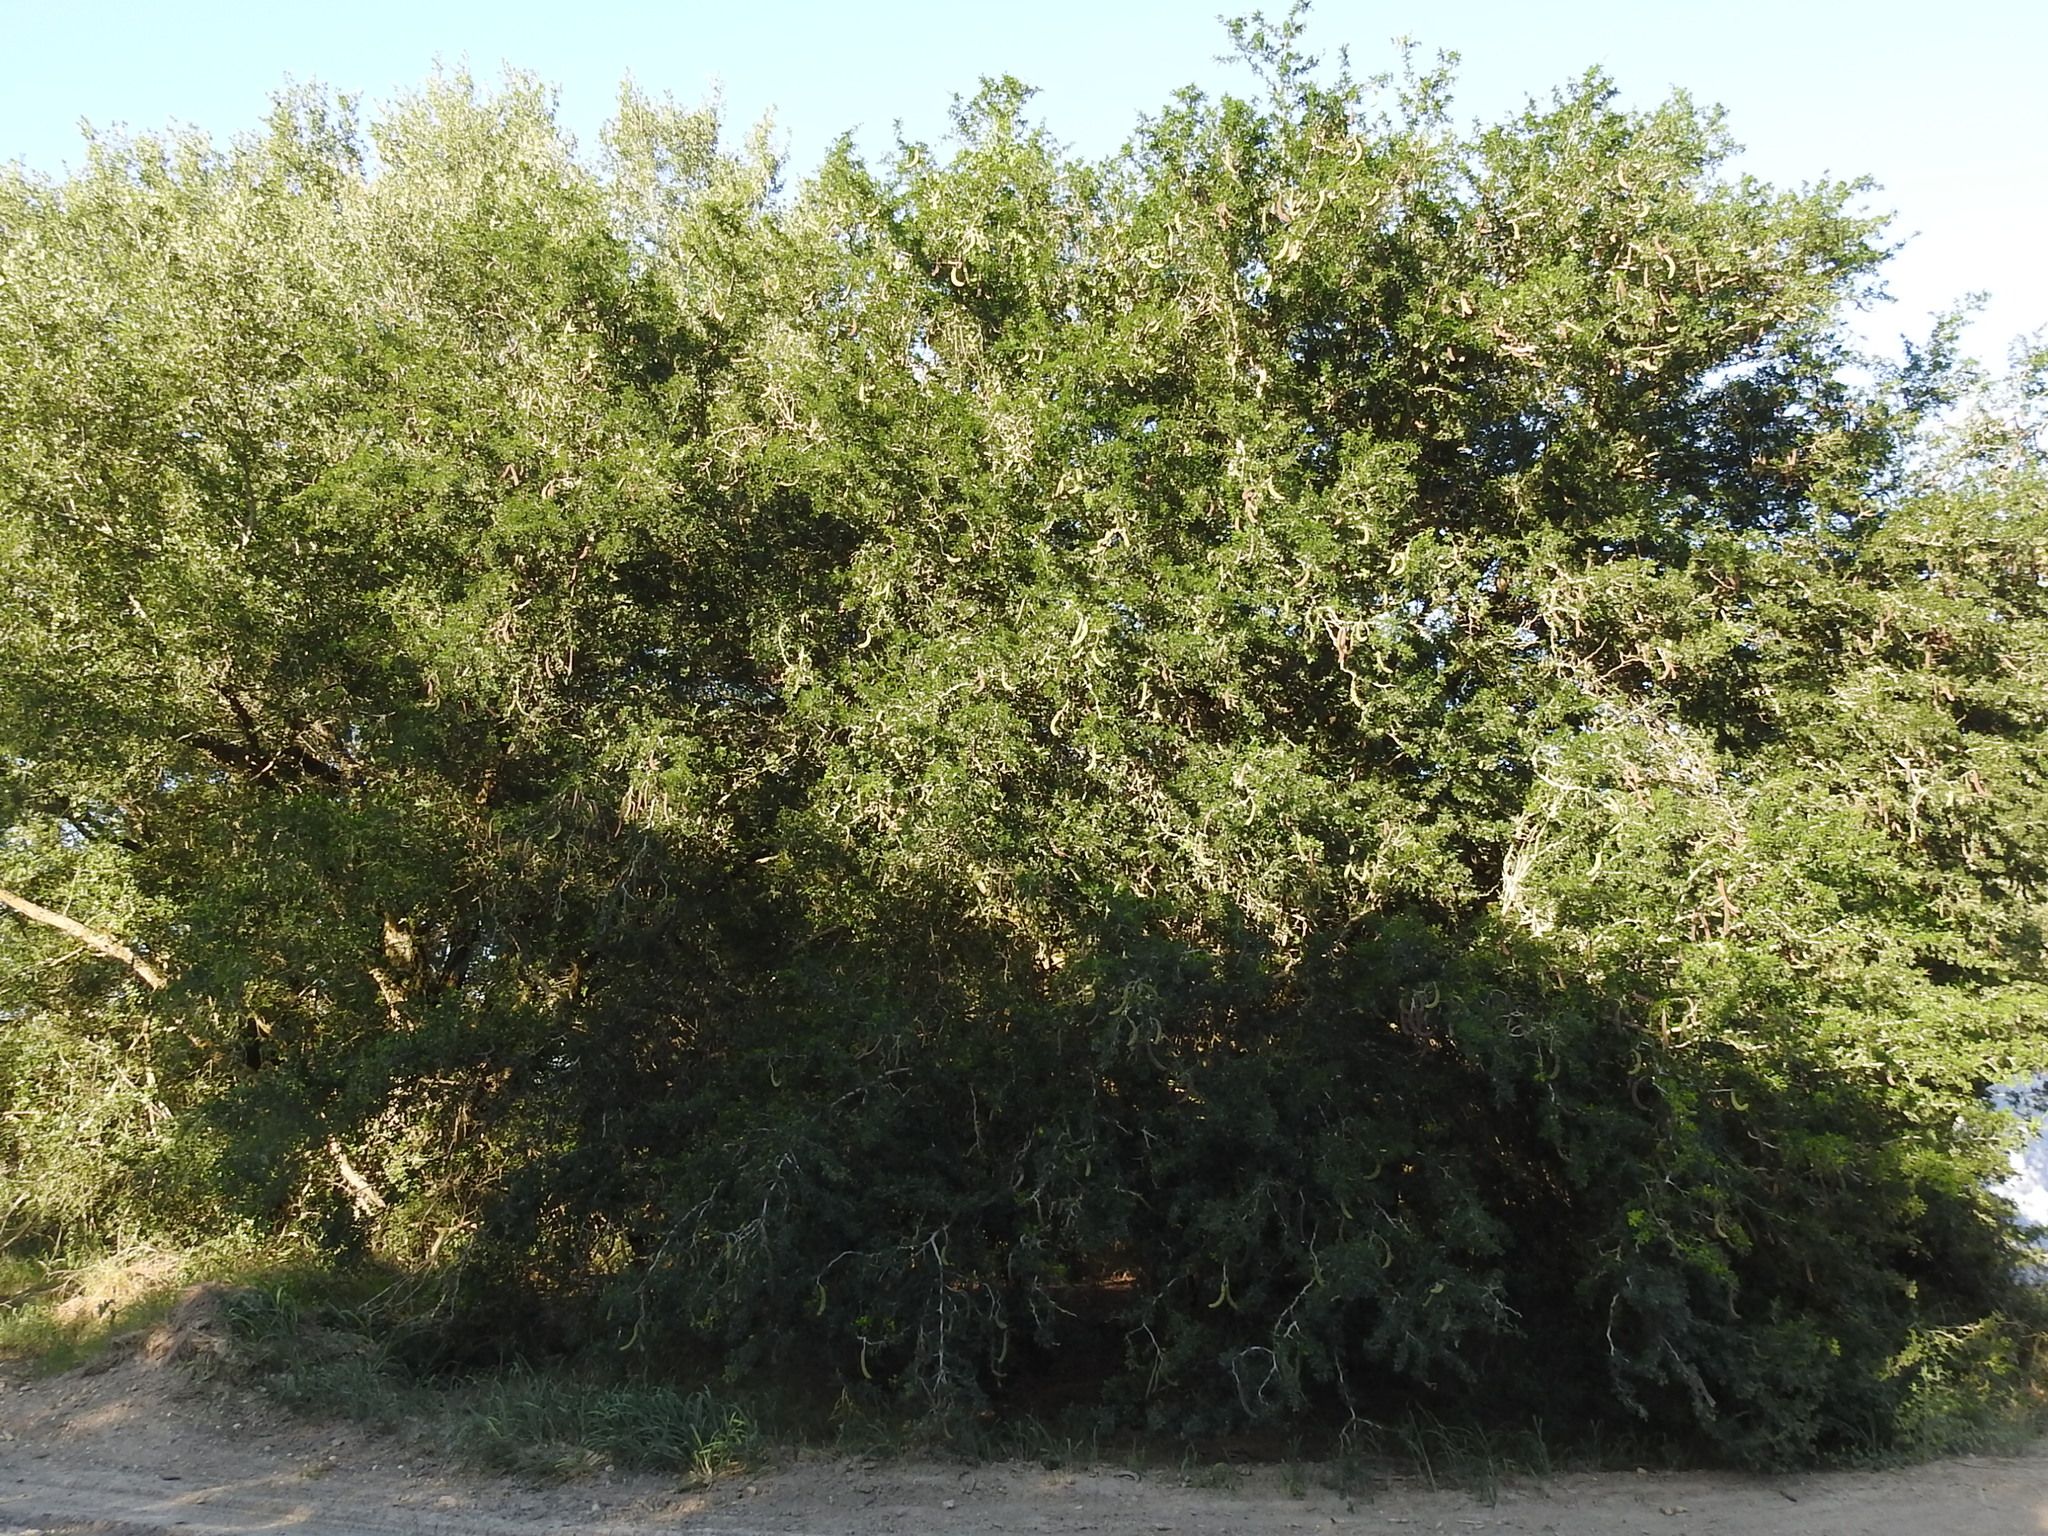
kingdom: Plantae
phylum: Tracheophyta
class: Magnoliopsida
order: Fabales
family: Fabaceae
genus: Ebenopsis
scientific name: Ebenopsis ebano
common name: Ebony blackbead
